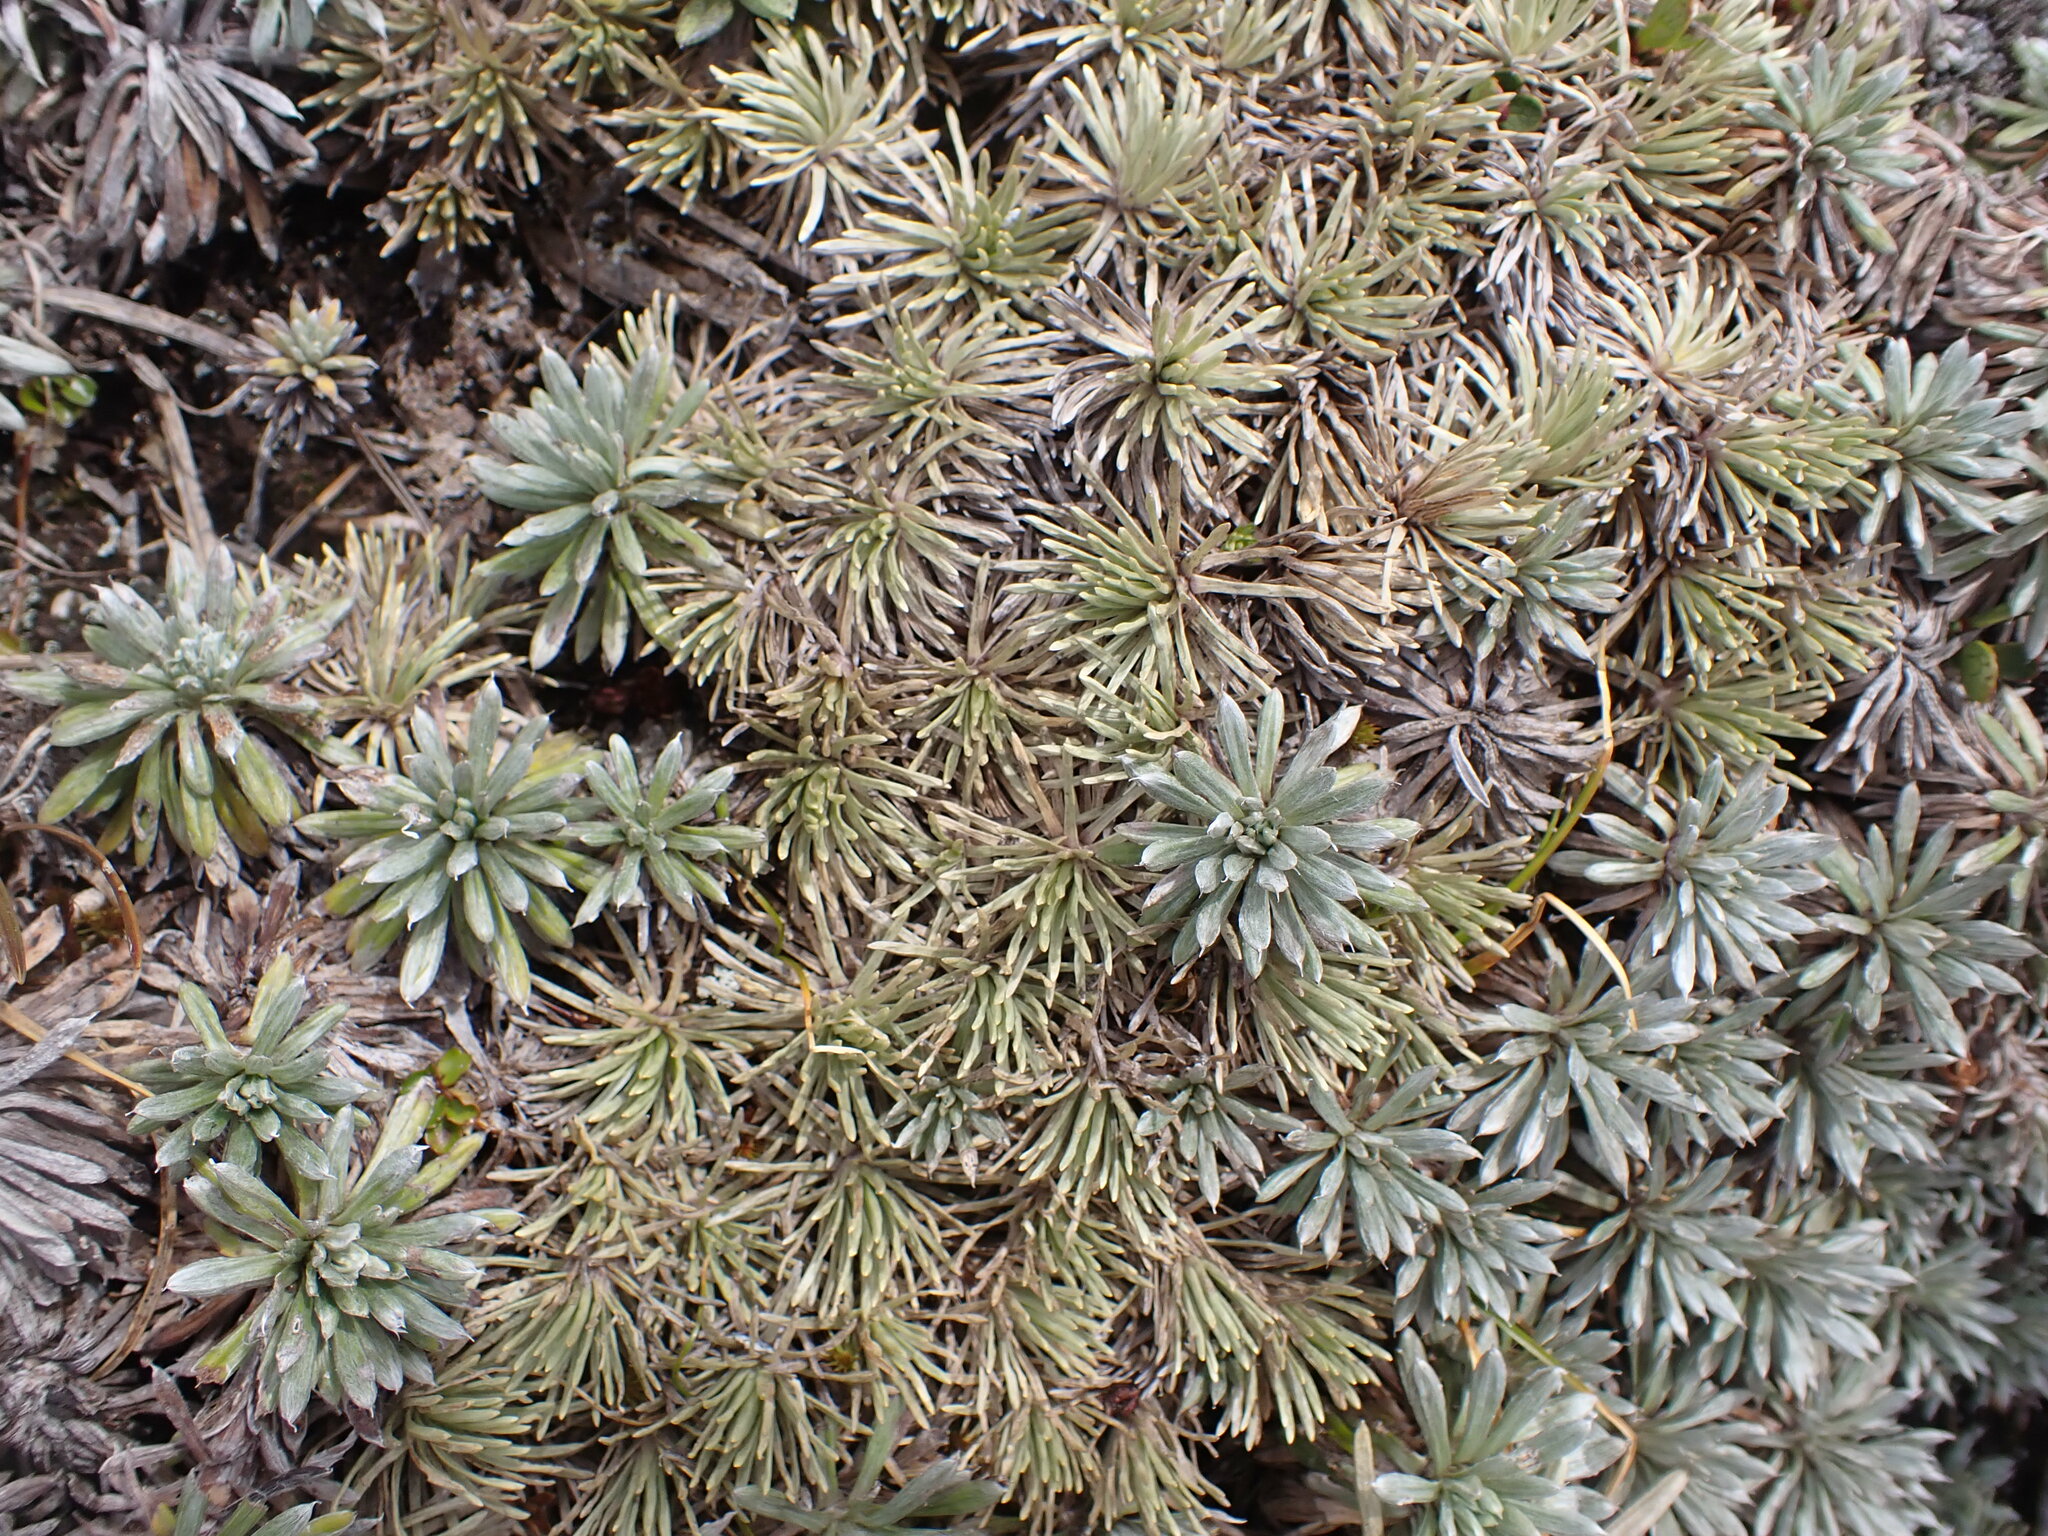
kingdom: Plantae
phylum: Tracheophyta
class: Magnoliopsida
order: Asterales
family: Asteraceae
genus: Celmisia
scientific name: Celmisia hectorii
